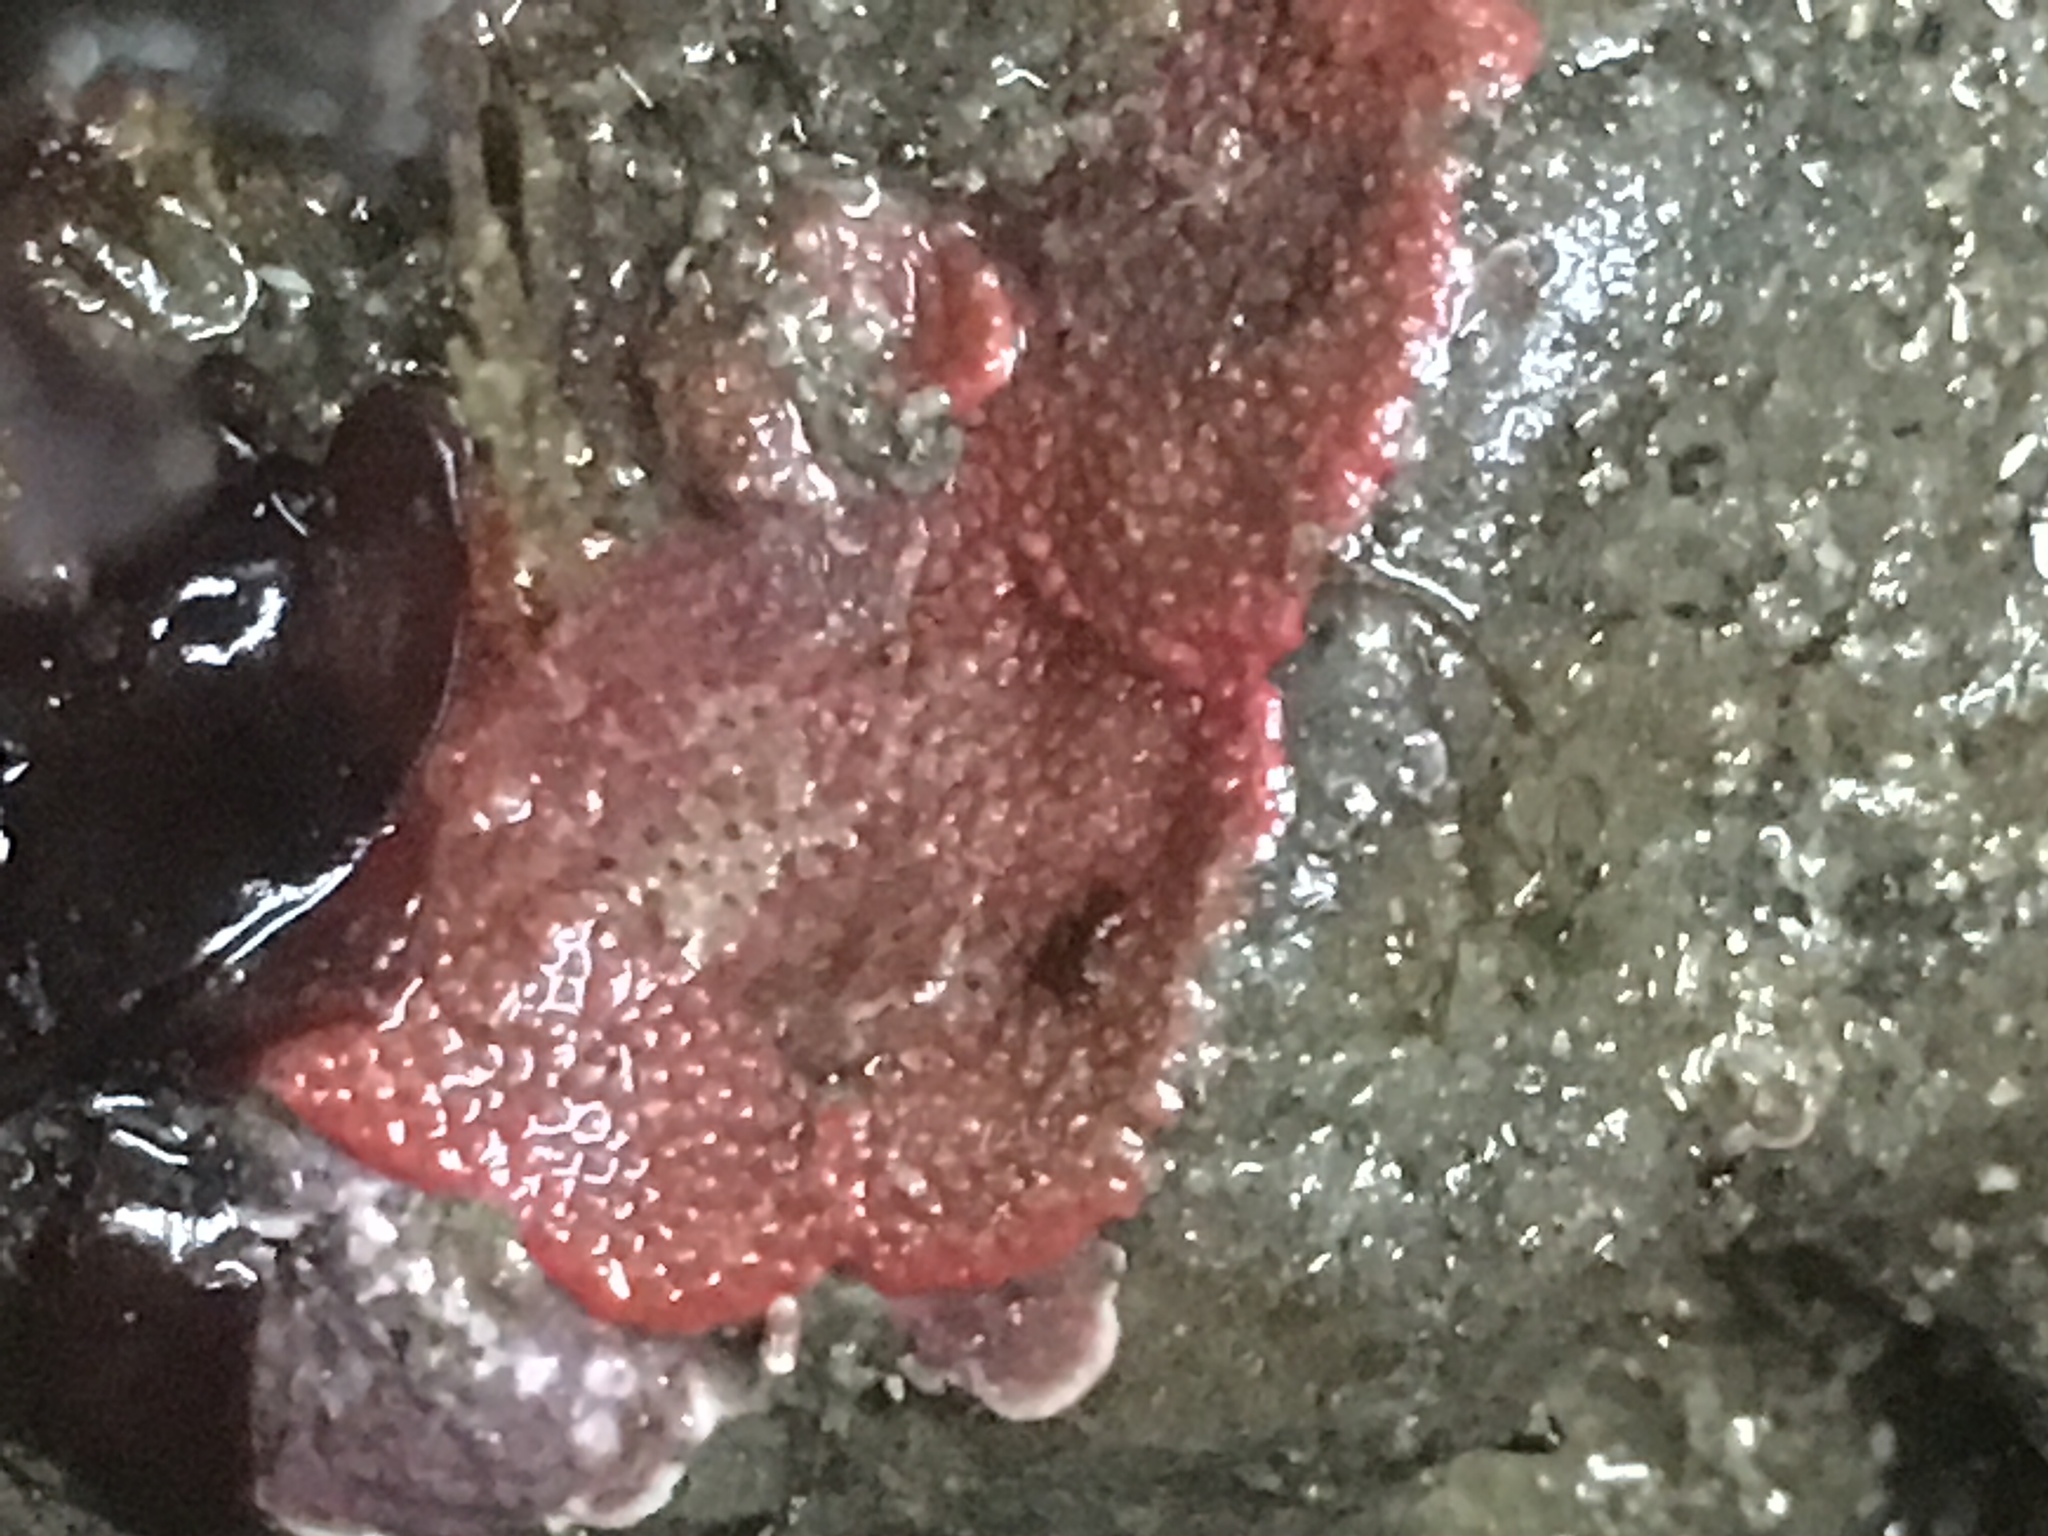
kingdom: Animalia
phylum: Bryozoa
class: Gymnolaemata
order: Cheilostomatida
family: Eurystomellidae
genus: Integripelta
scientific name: Integripelta bilabiata
